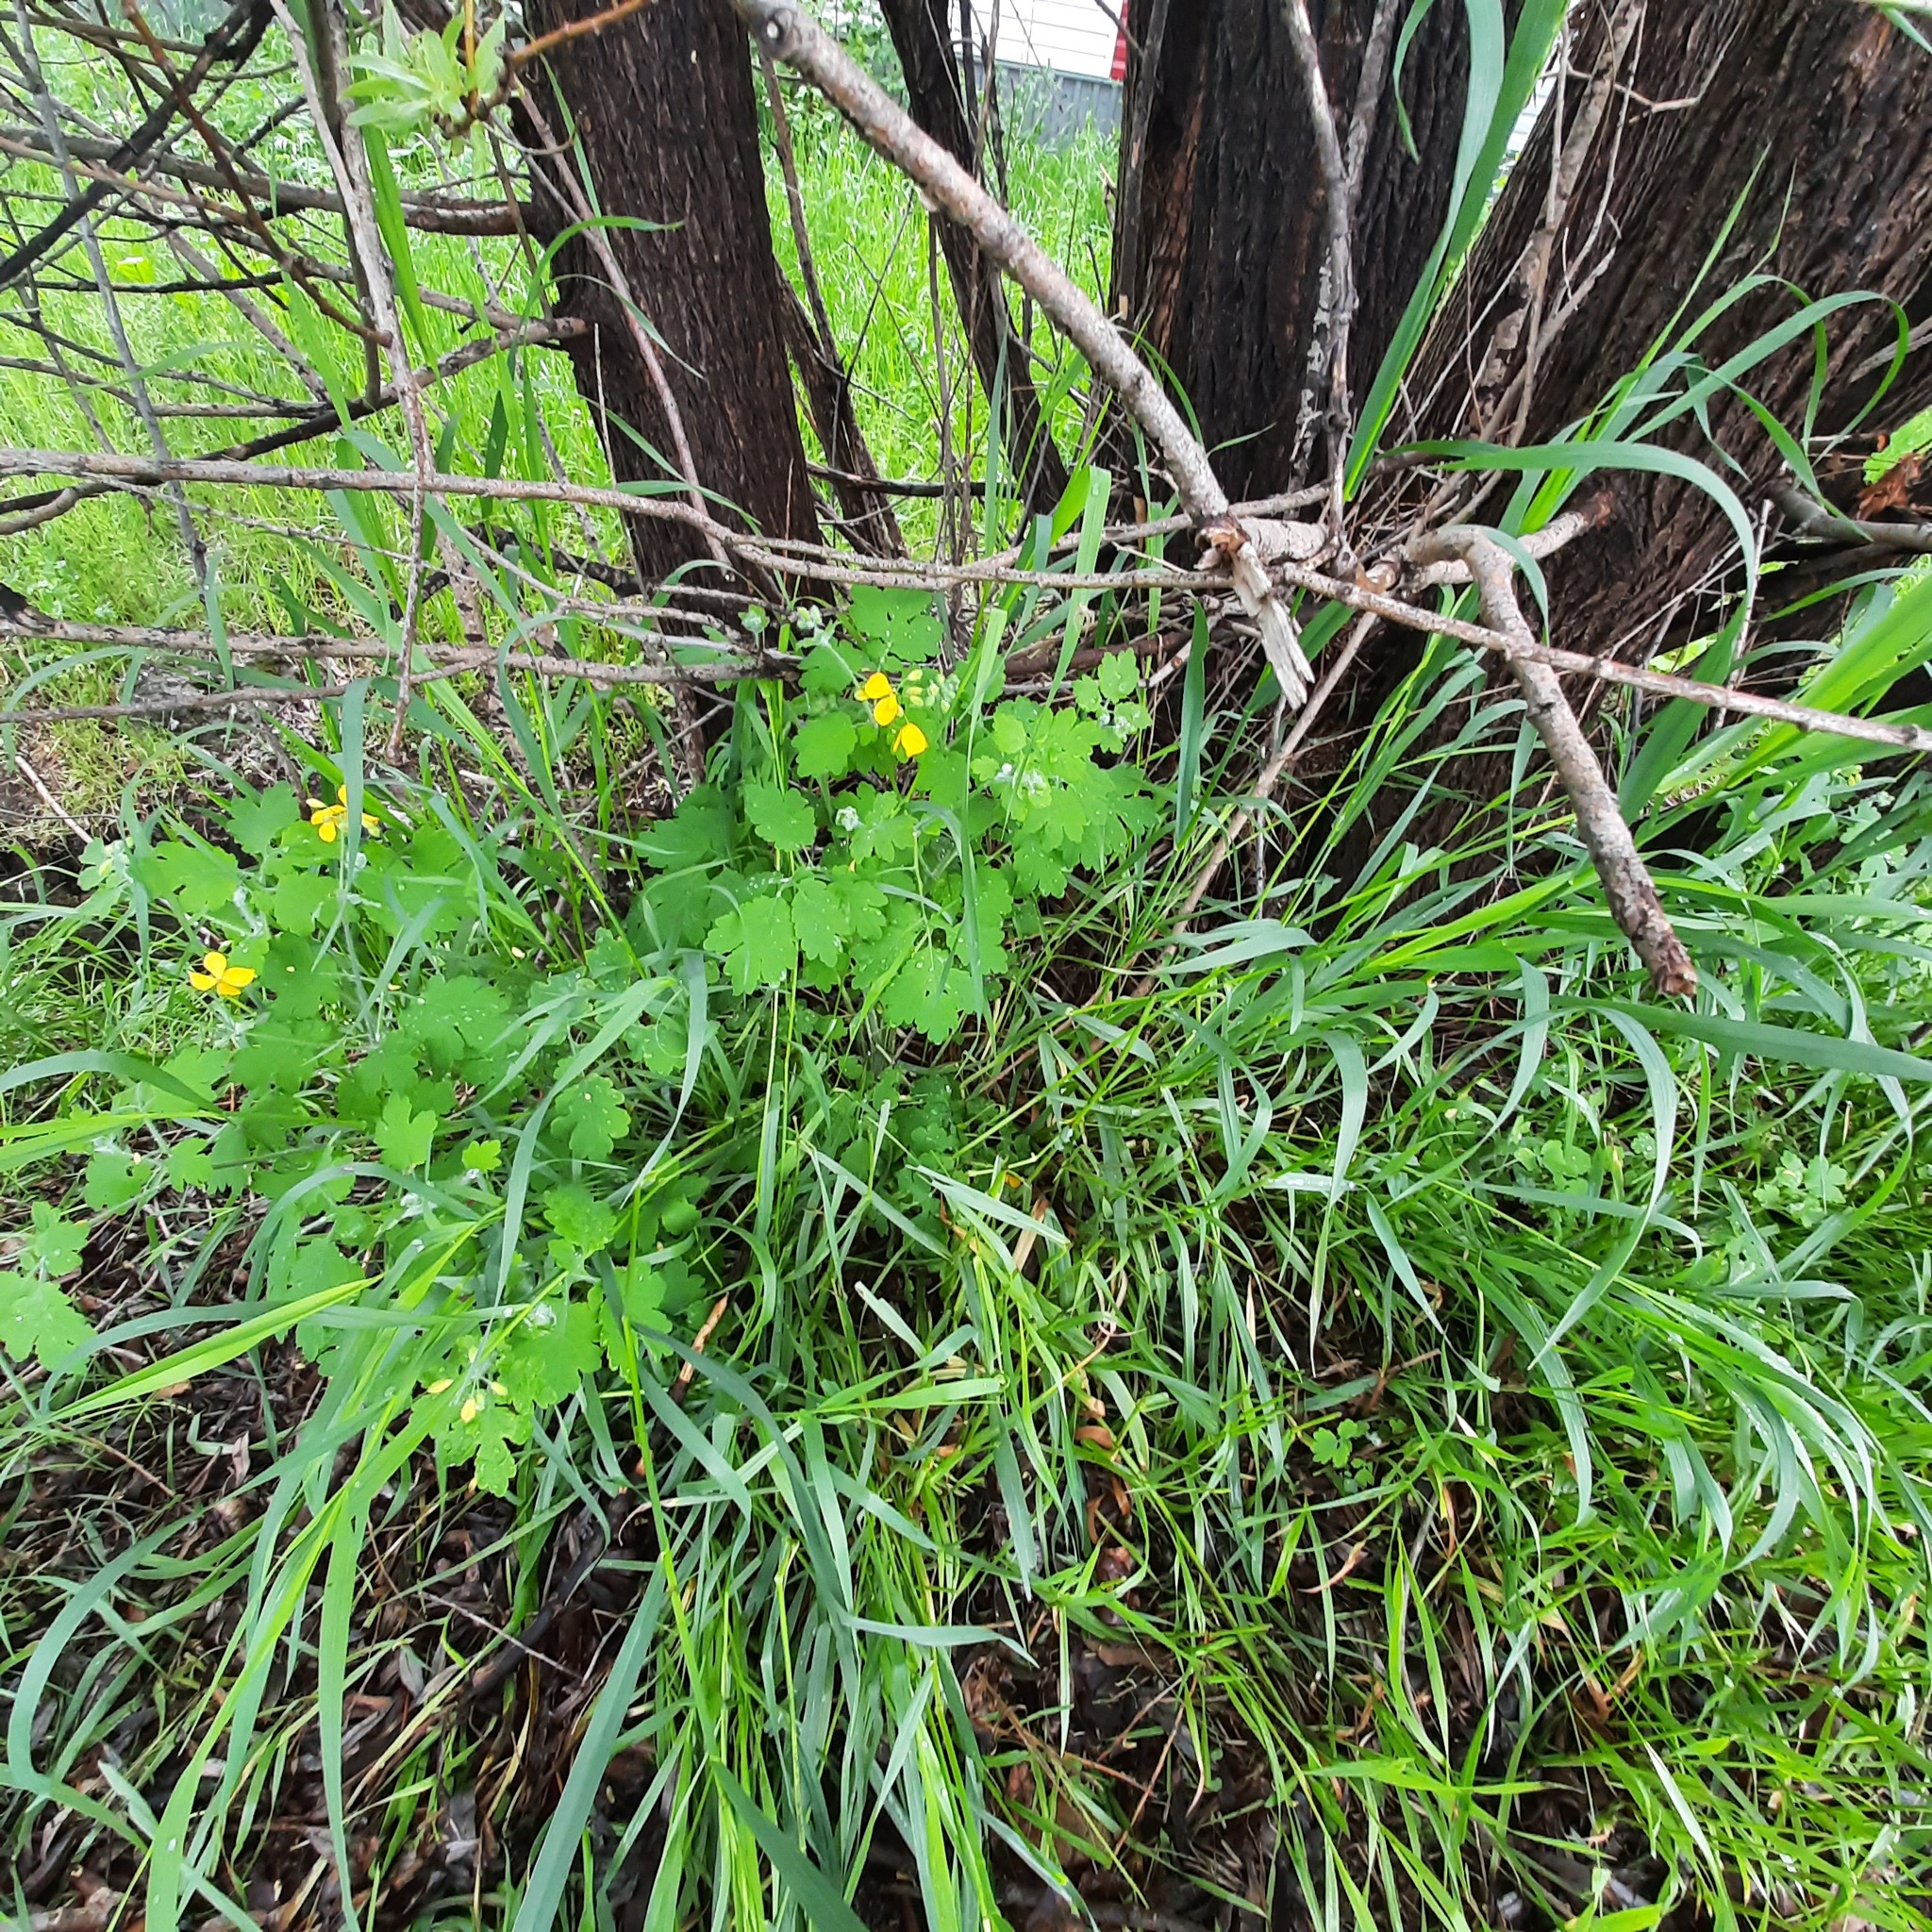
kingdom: Plantae
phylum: Tracheophyta
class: Magnoliopsida
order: Ranunculales
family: Papaveraceae
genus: Chelidonium
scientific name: Chelidonium majus
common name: Greater celandine
